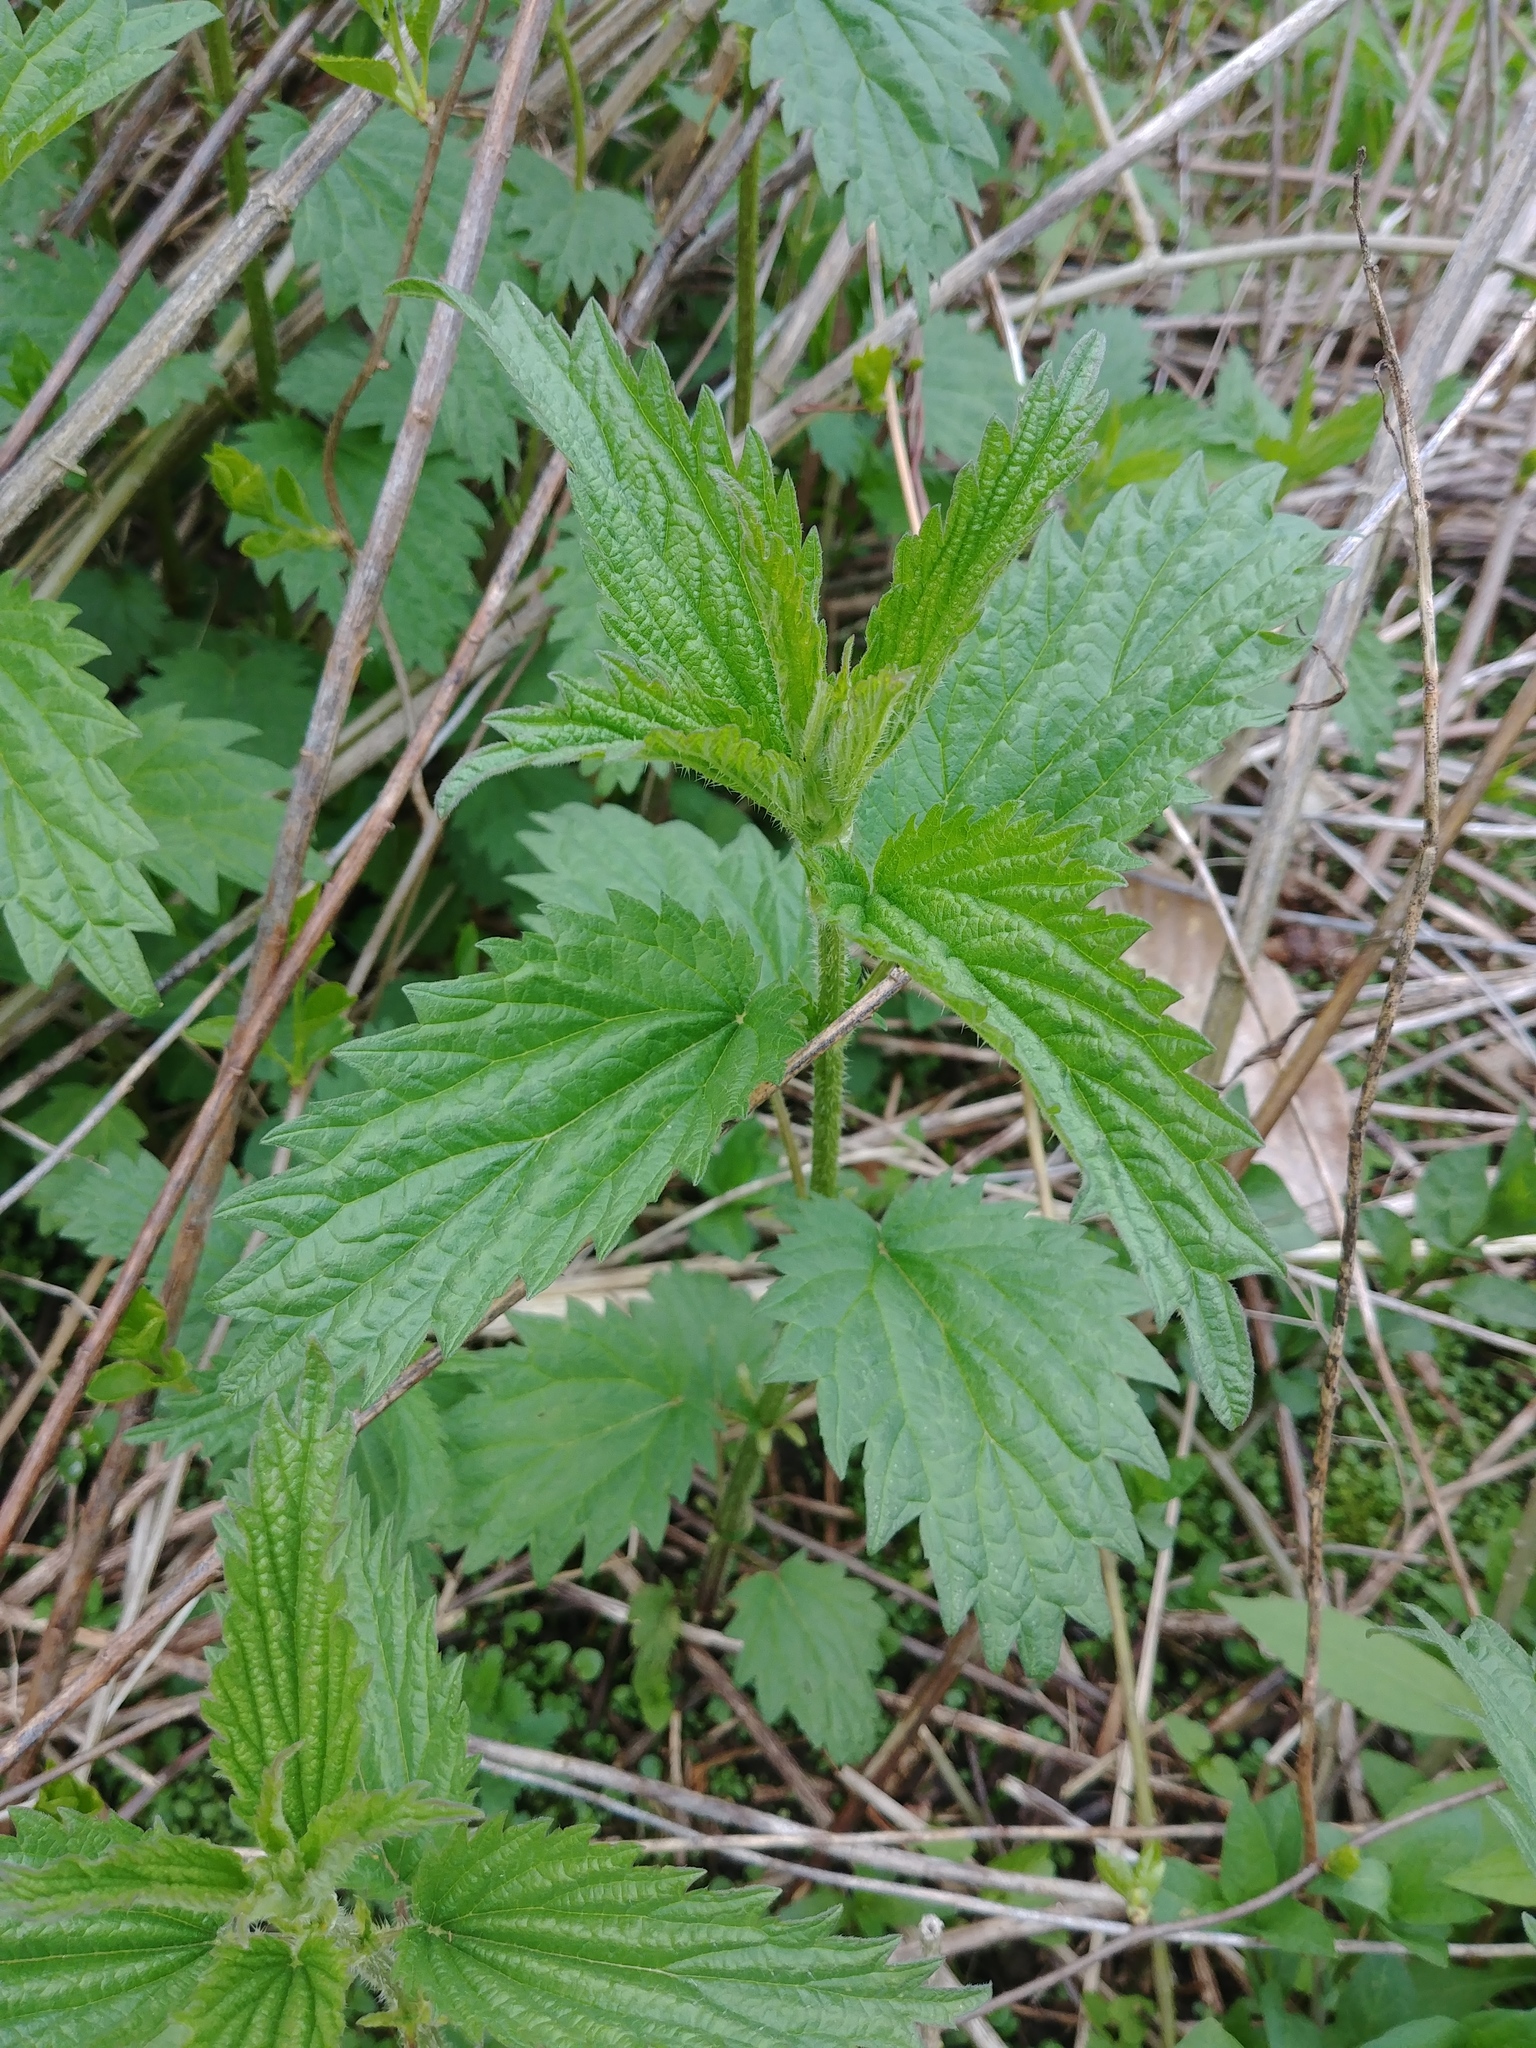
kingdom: Plantae
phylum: Tracheophyta
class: Magnoliopsida
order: Rosales
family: Urticaceae
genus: Urtica
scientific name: Urtica dioica
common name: Common nettle
